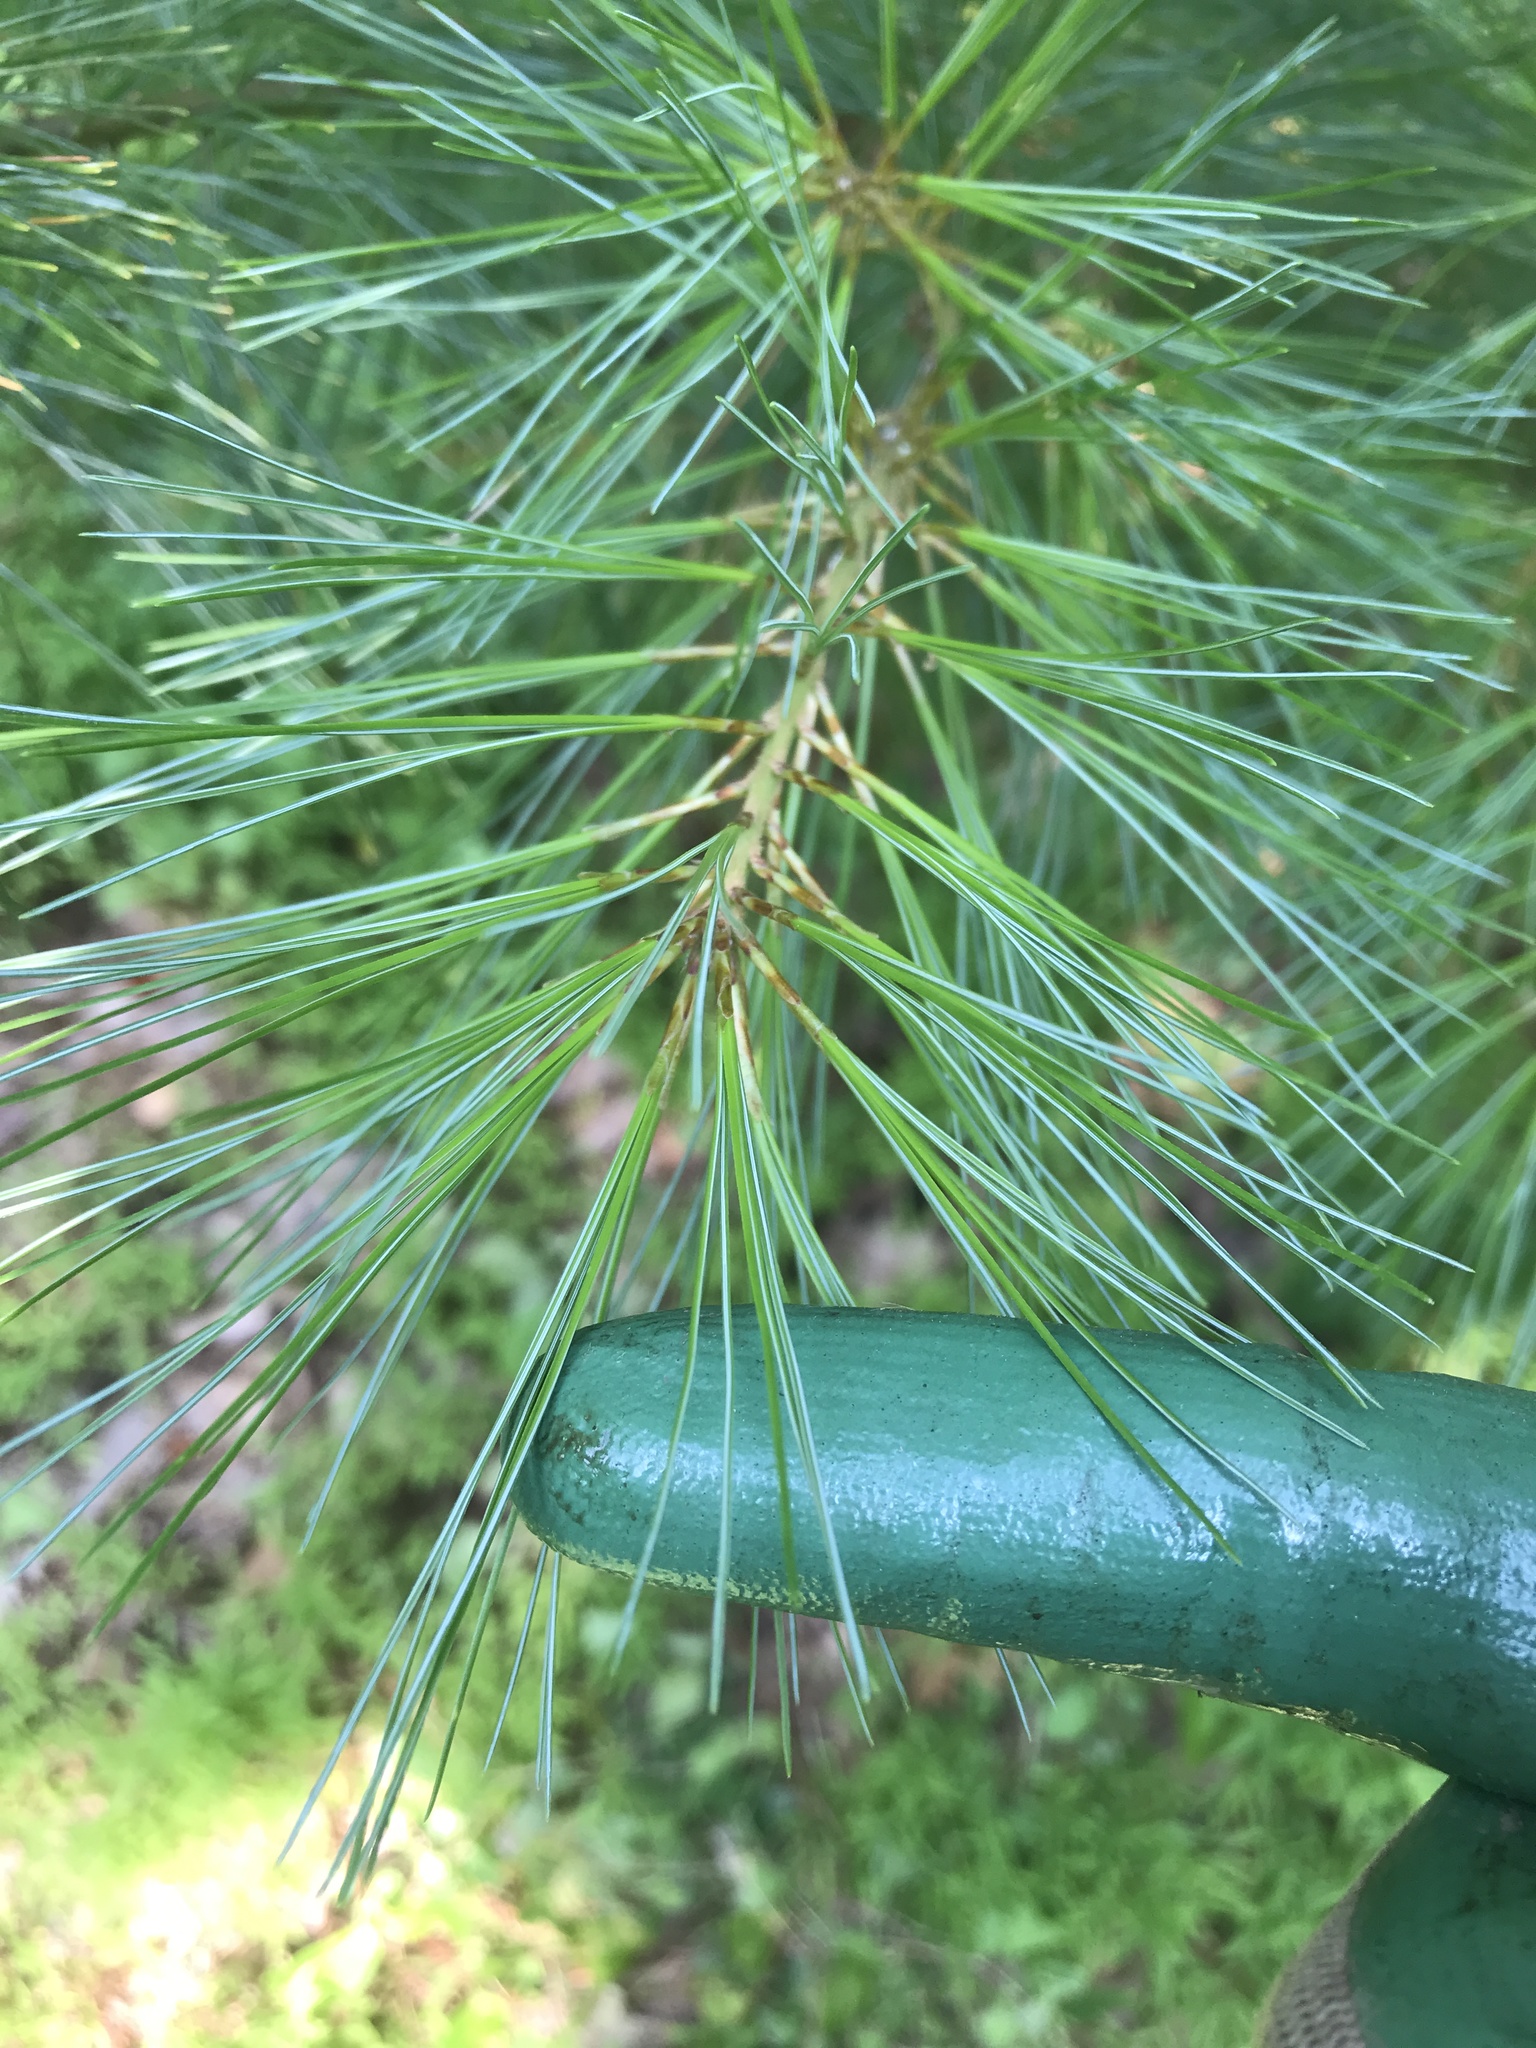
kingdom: Plantae
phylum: Tracheophyta
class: Pinopsida
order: Pinales
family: Pinaceae
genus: Pinus
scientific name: Pinus strobus
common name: Weymouth pine
